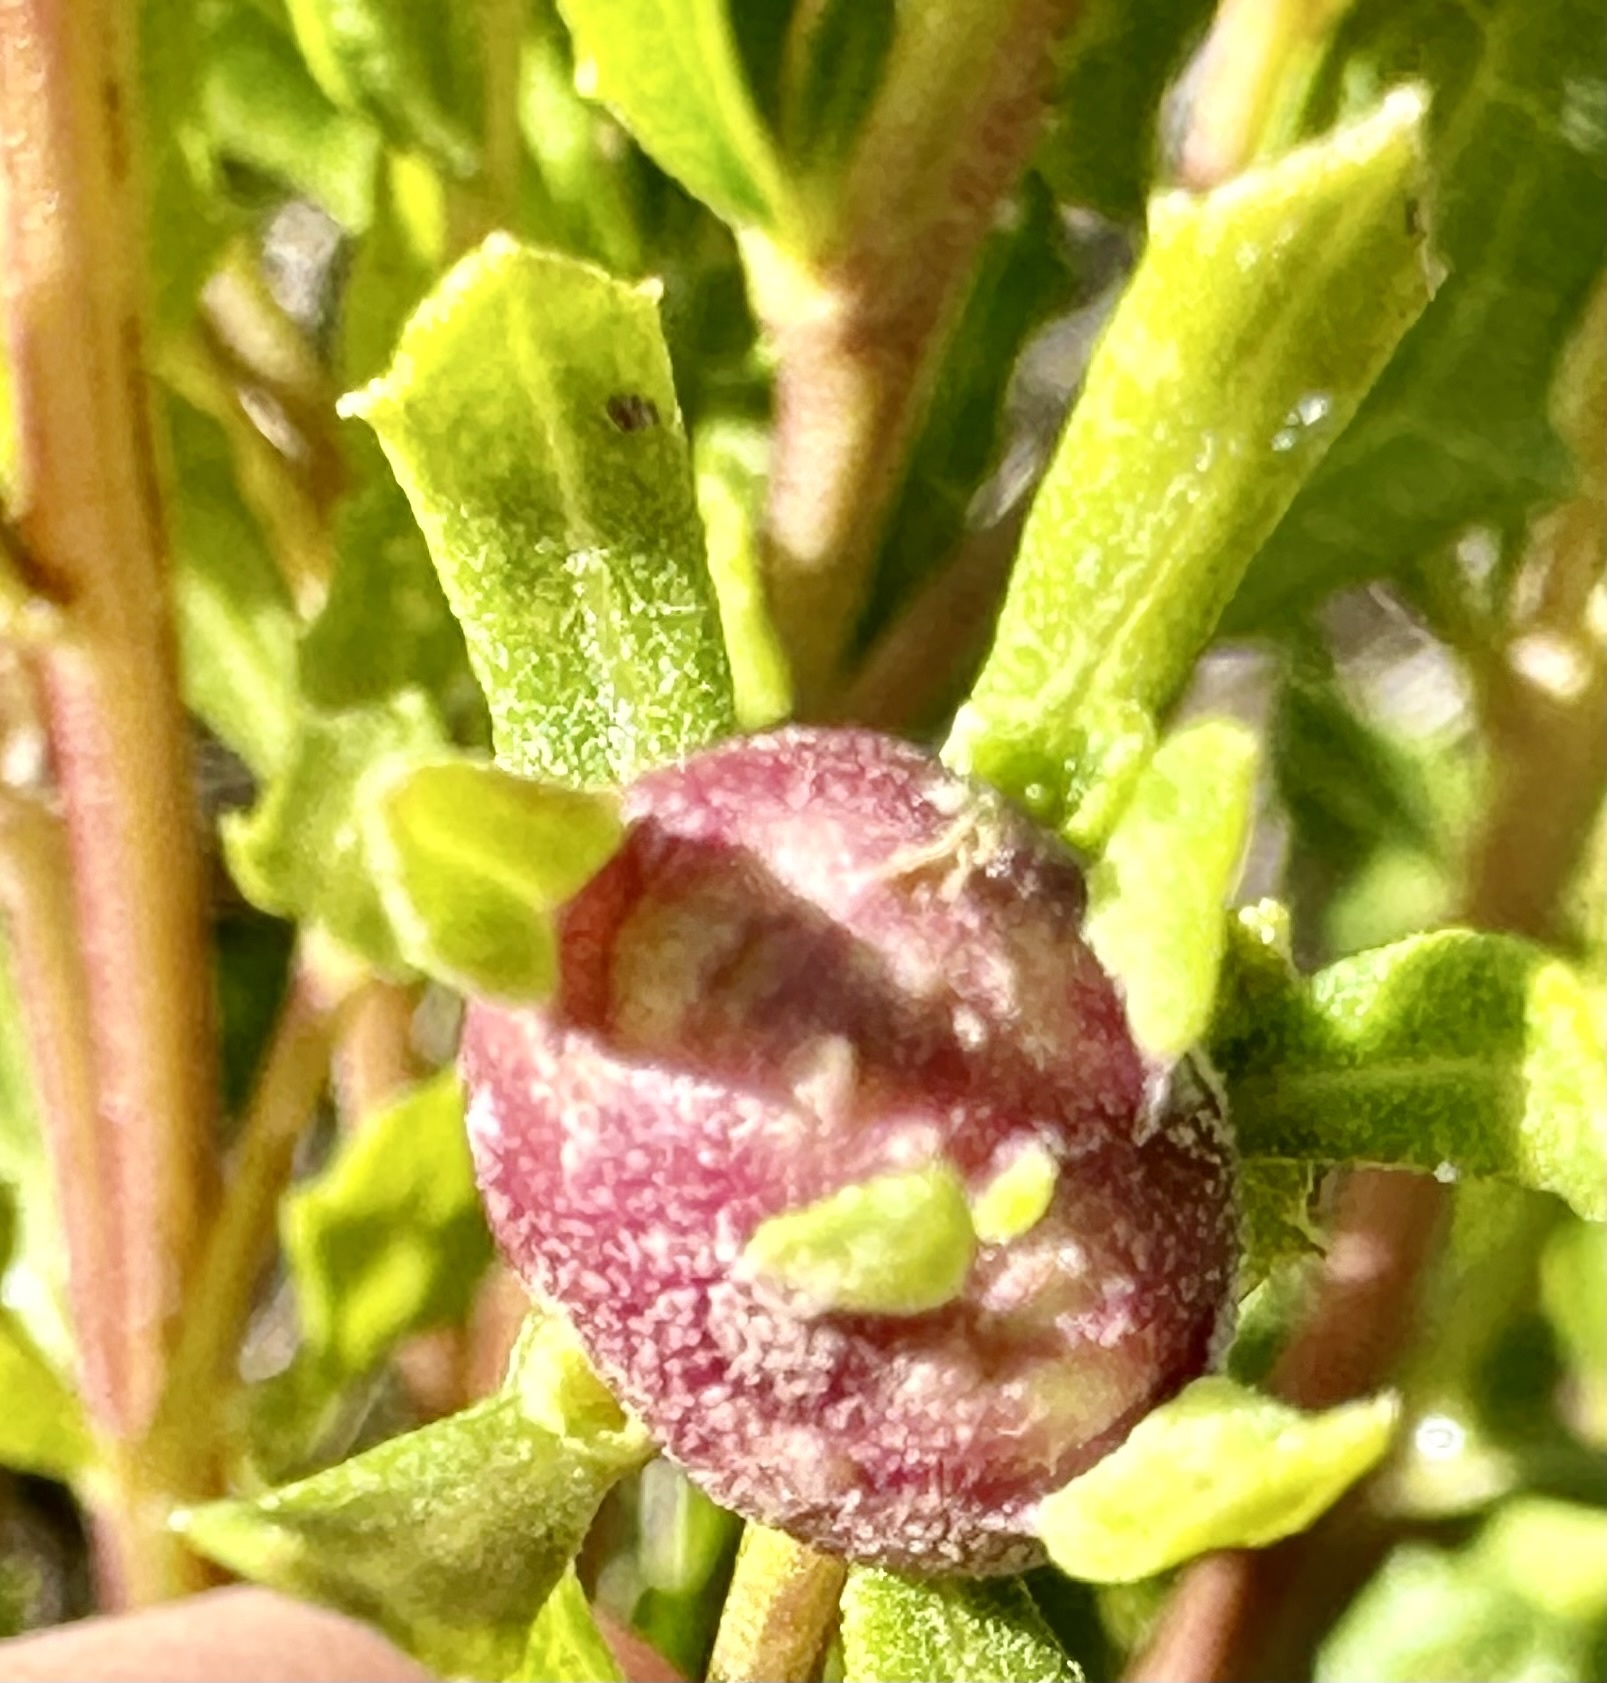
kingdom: Animalia
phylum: Arthropoda
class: Insecta
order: Diptera
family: Cecidomyiidae
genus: Rhopalomyia
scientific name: Rhopalomyia californica
